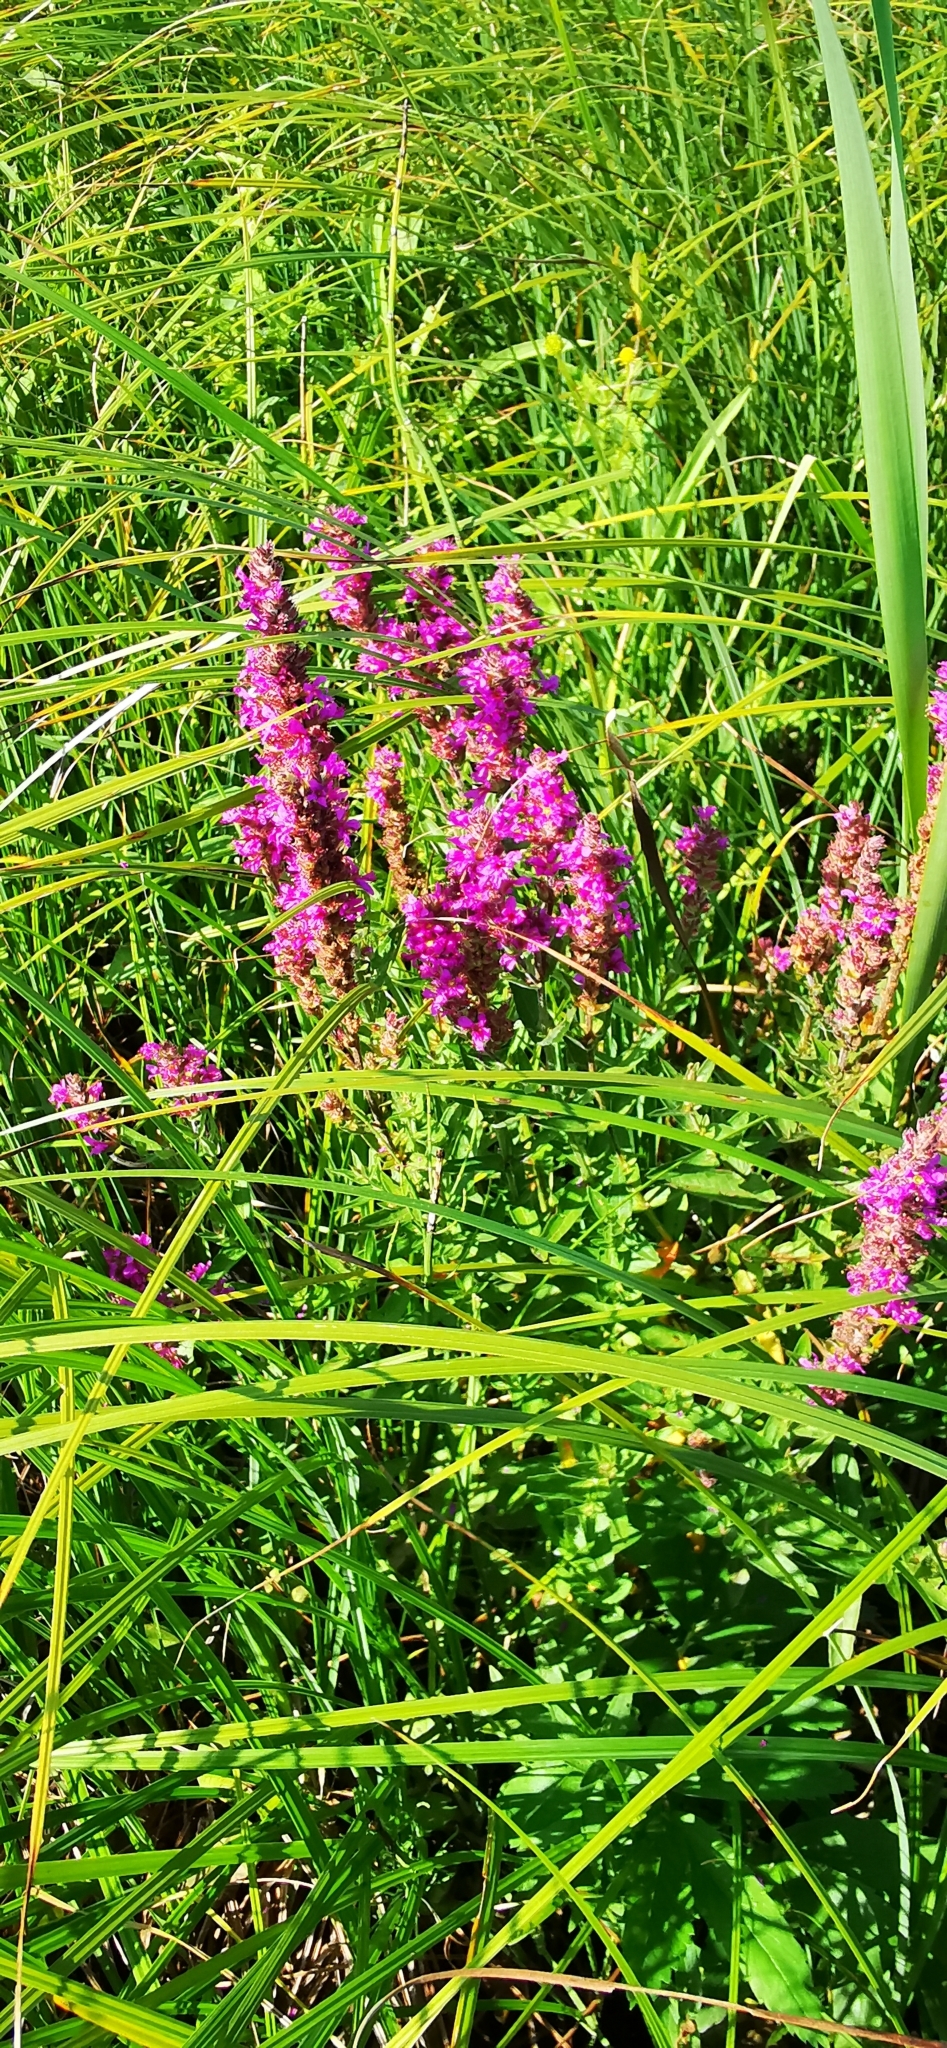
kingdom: Plantae
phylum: Tracheophyta
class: Magnoliopsida
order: Myrtales
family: Lythraceae
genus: Lythrum
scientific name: Lythrum salicaria
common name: Purple loosestrife
